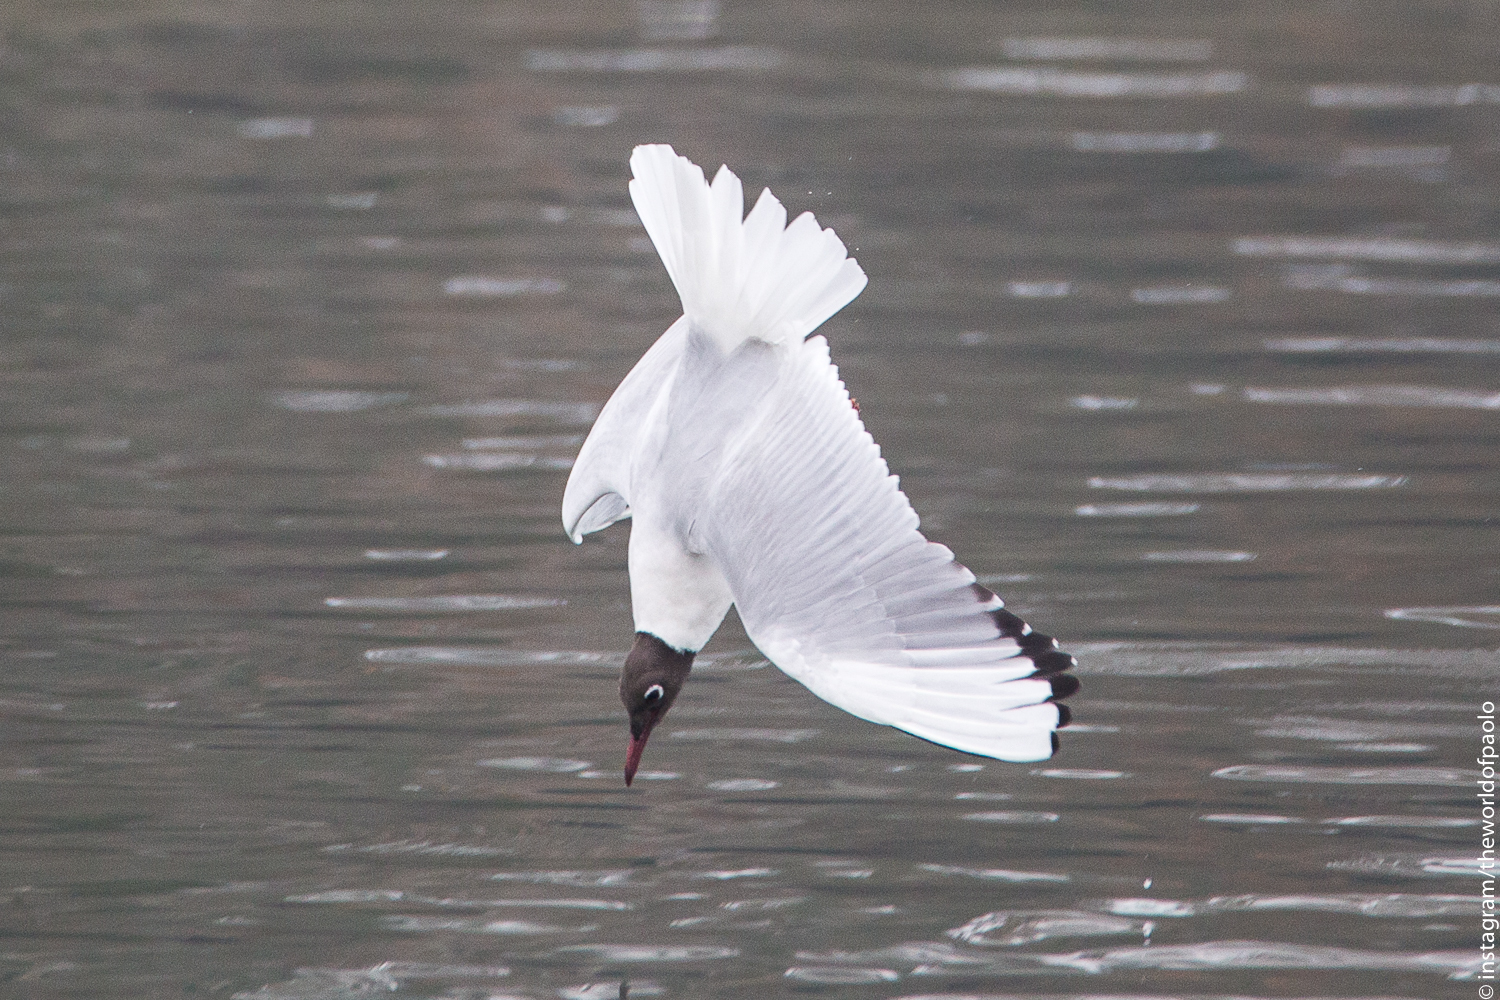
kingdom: Animalia
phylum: Chordata
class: Aves
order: Charadriiformes
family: Laridae
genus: Chroicocephalus
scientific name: Chroicocephalus ridibundus
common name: Black-headed gull
